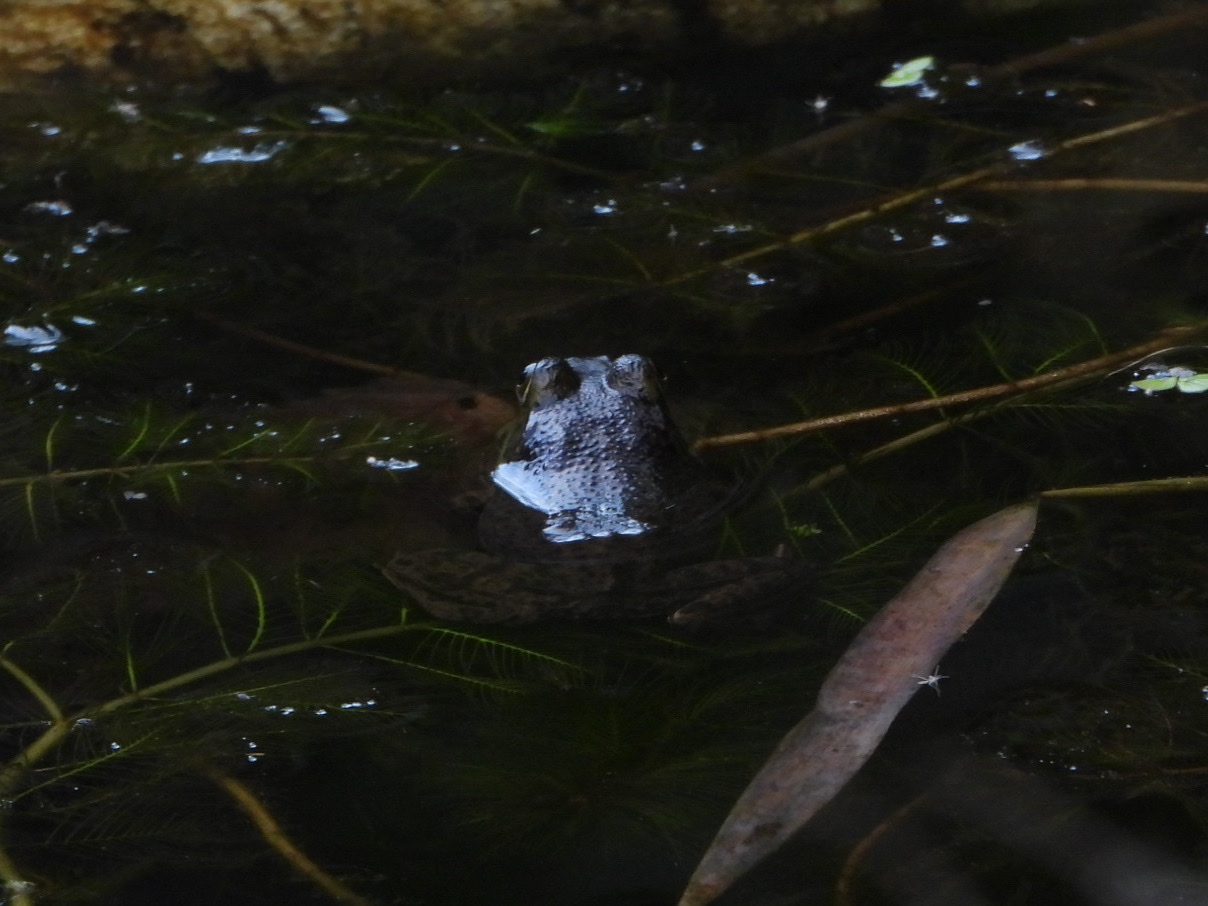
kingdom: Animalia
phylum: Chordata
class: Amphibia
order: Anura
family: Ranidae
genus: Lithobates
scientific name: Lithobates catesbeianus
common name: American bullfrog
